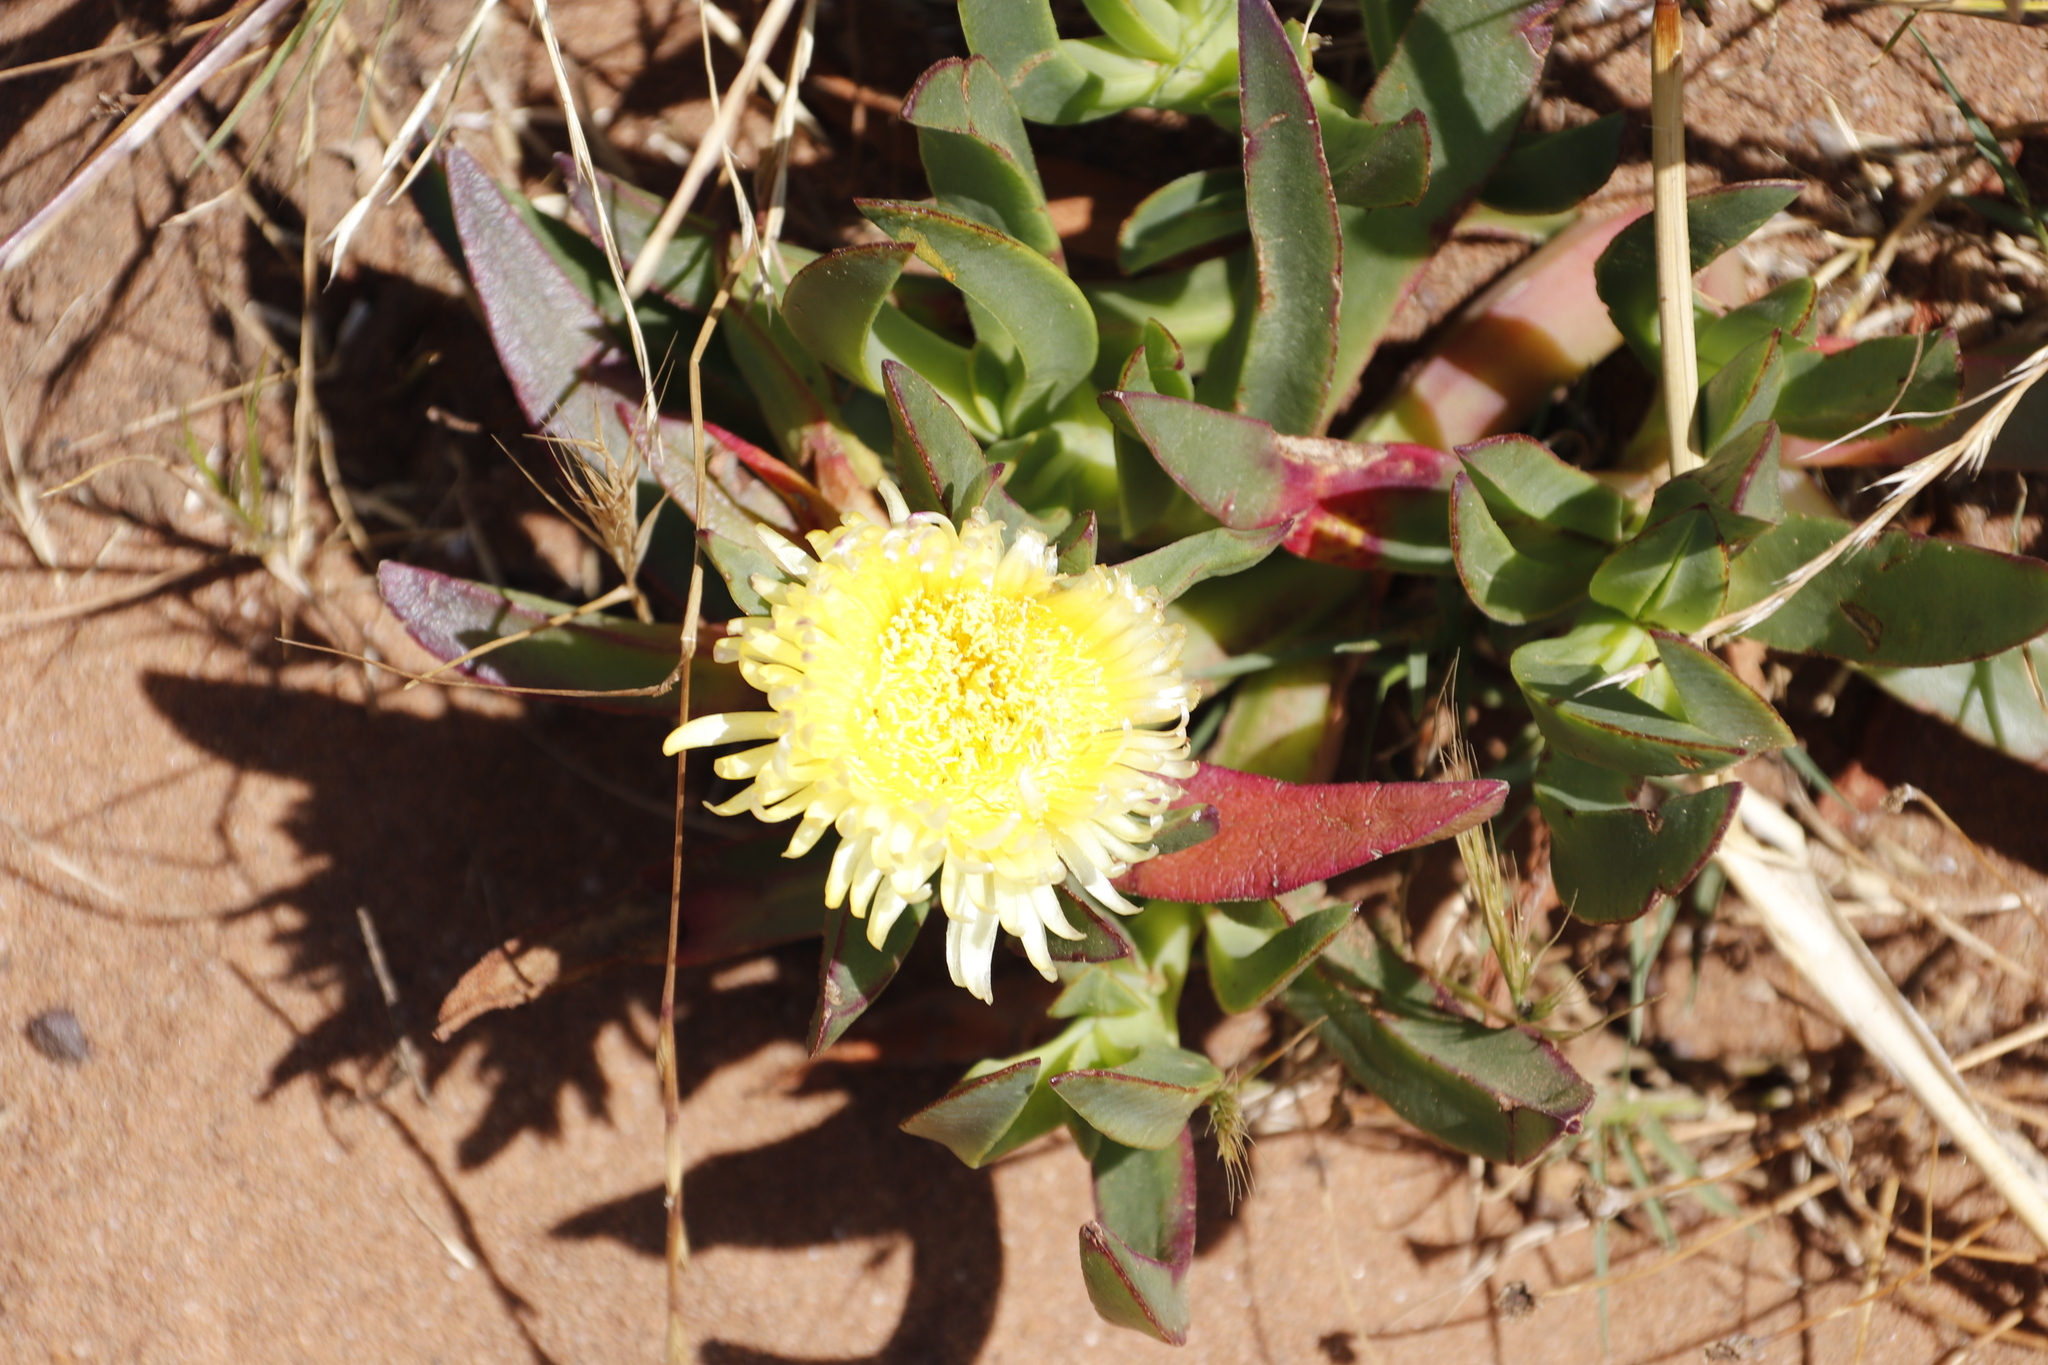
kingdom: Plantae
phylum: Tracheophyta
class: Magnoliopsida
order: Caryophyllales
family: Aizoaceae
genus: Carpobrotus
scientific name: Carpobrotus edulis
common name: Hottentot-fig
